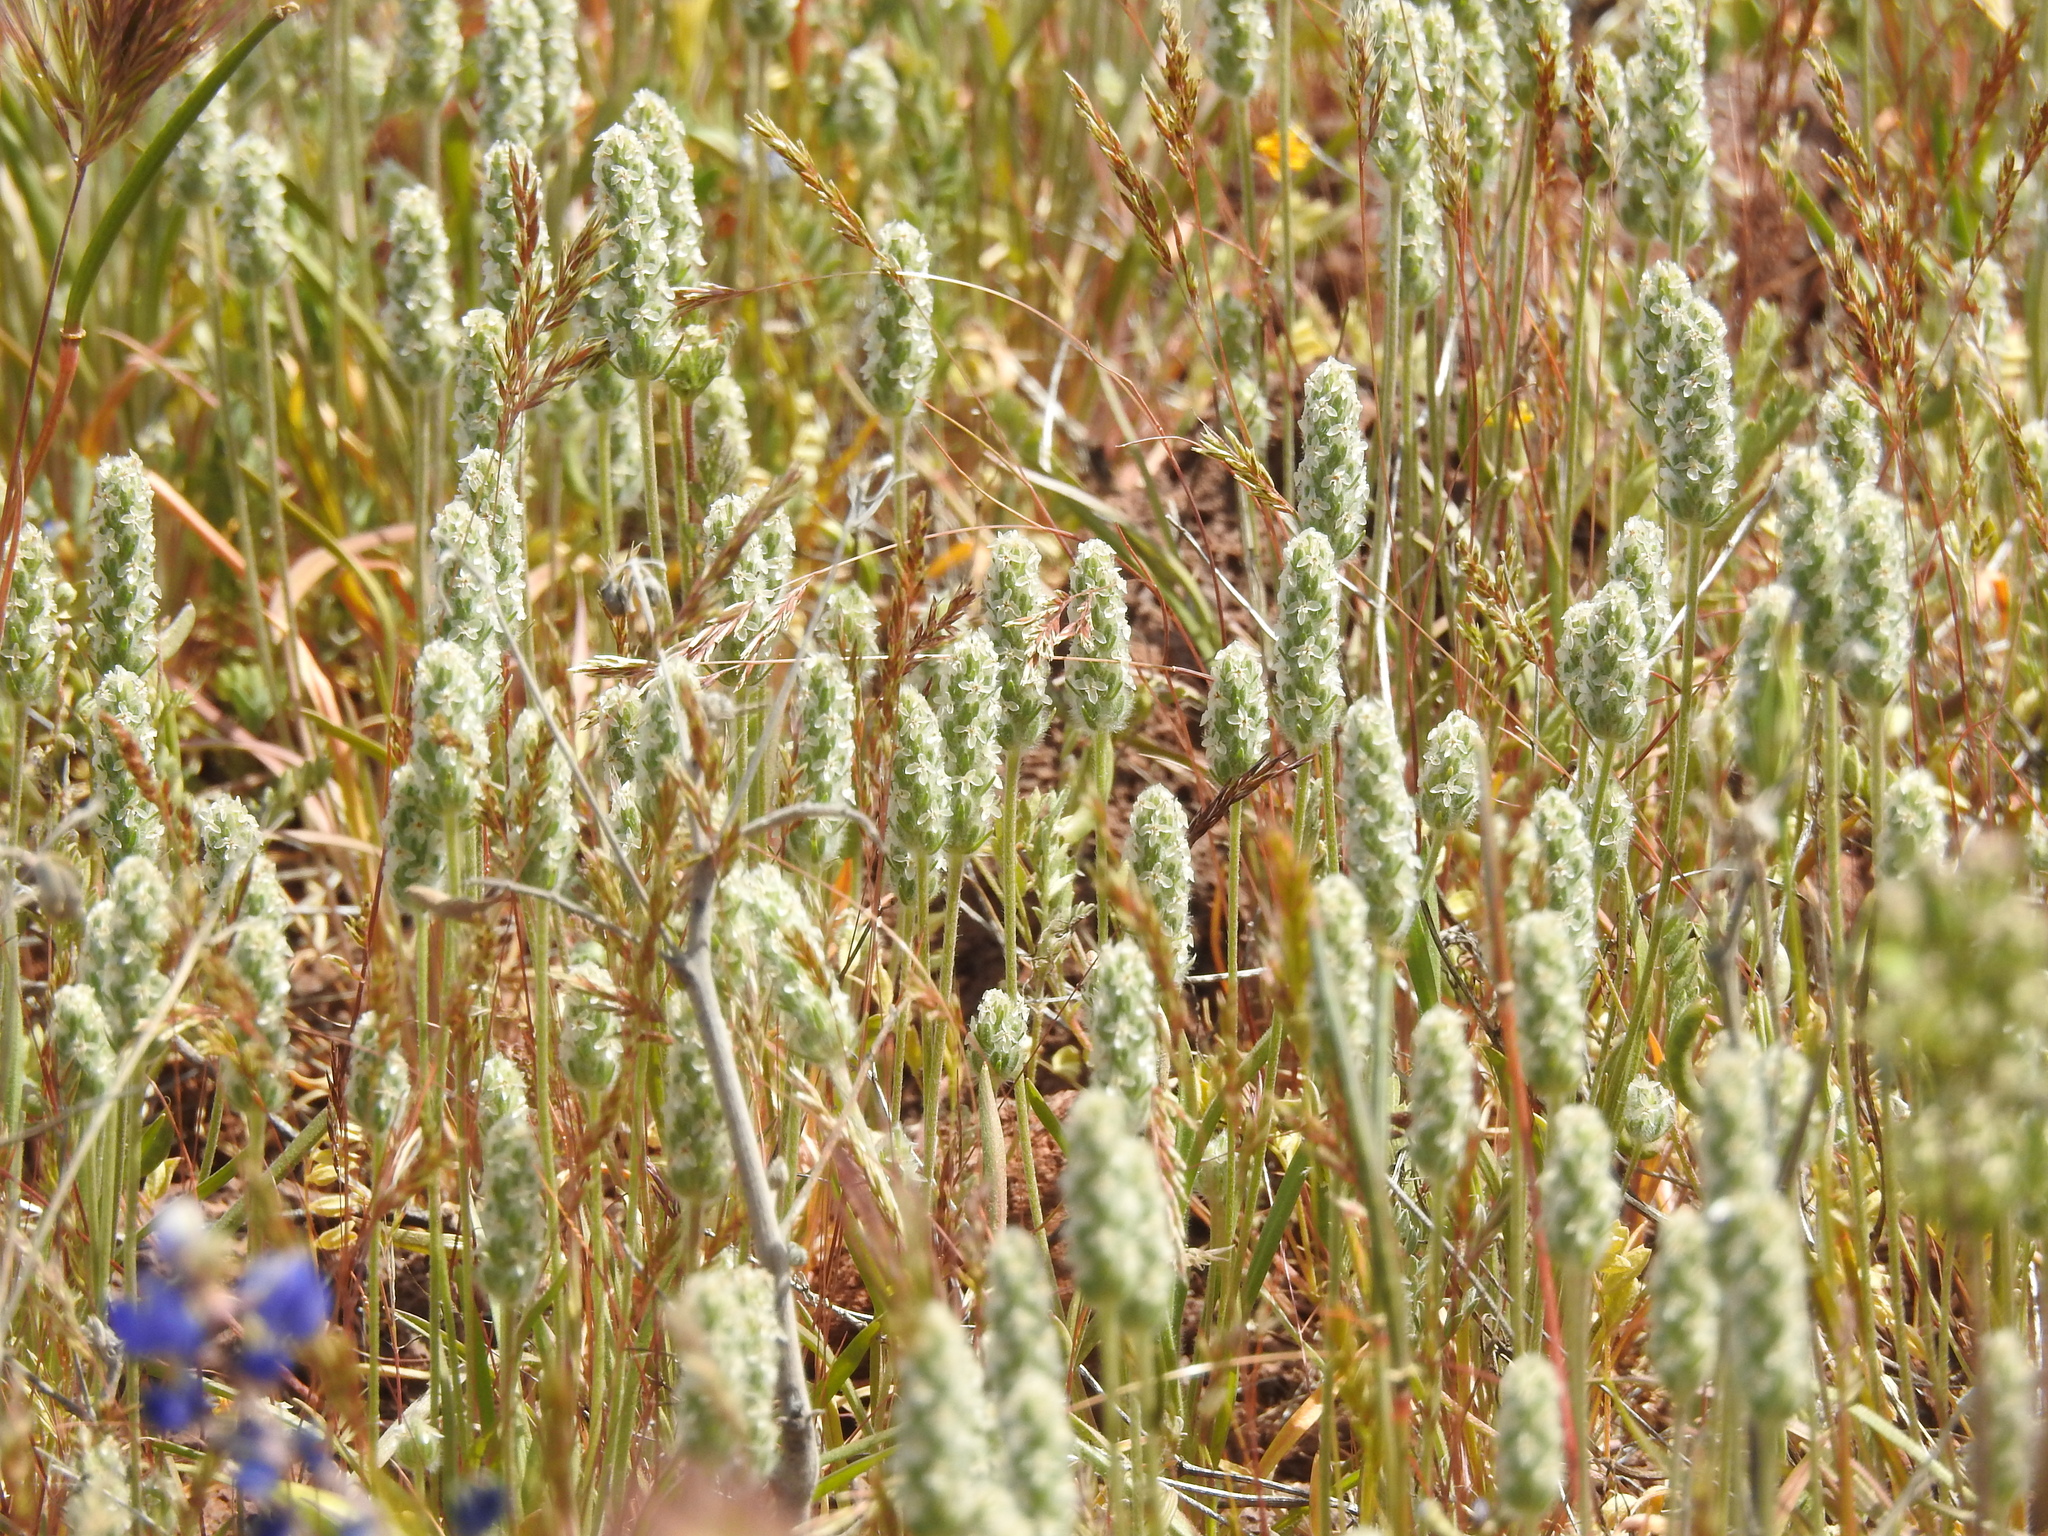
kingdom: Plantae
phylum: Tracheophyta
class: Magnoliopsida
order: Lamiales
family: Plantaginaceae
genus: Plantago
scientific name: Plantago ovata
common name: Blond plantain
